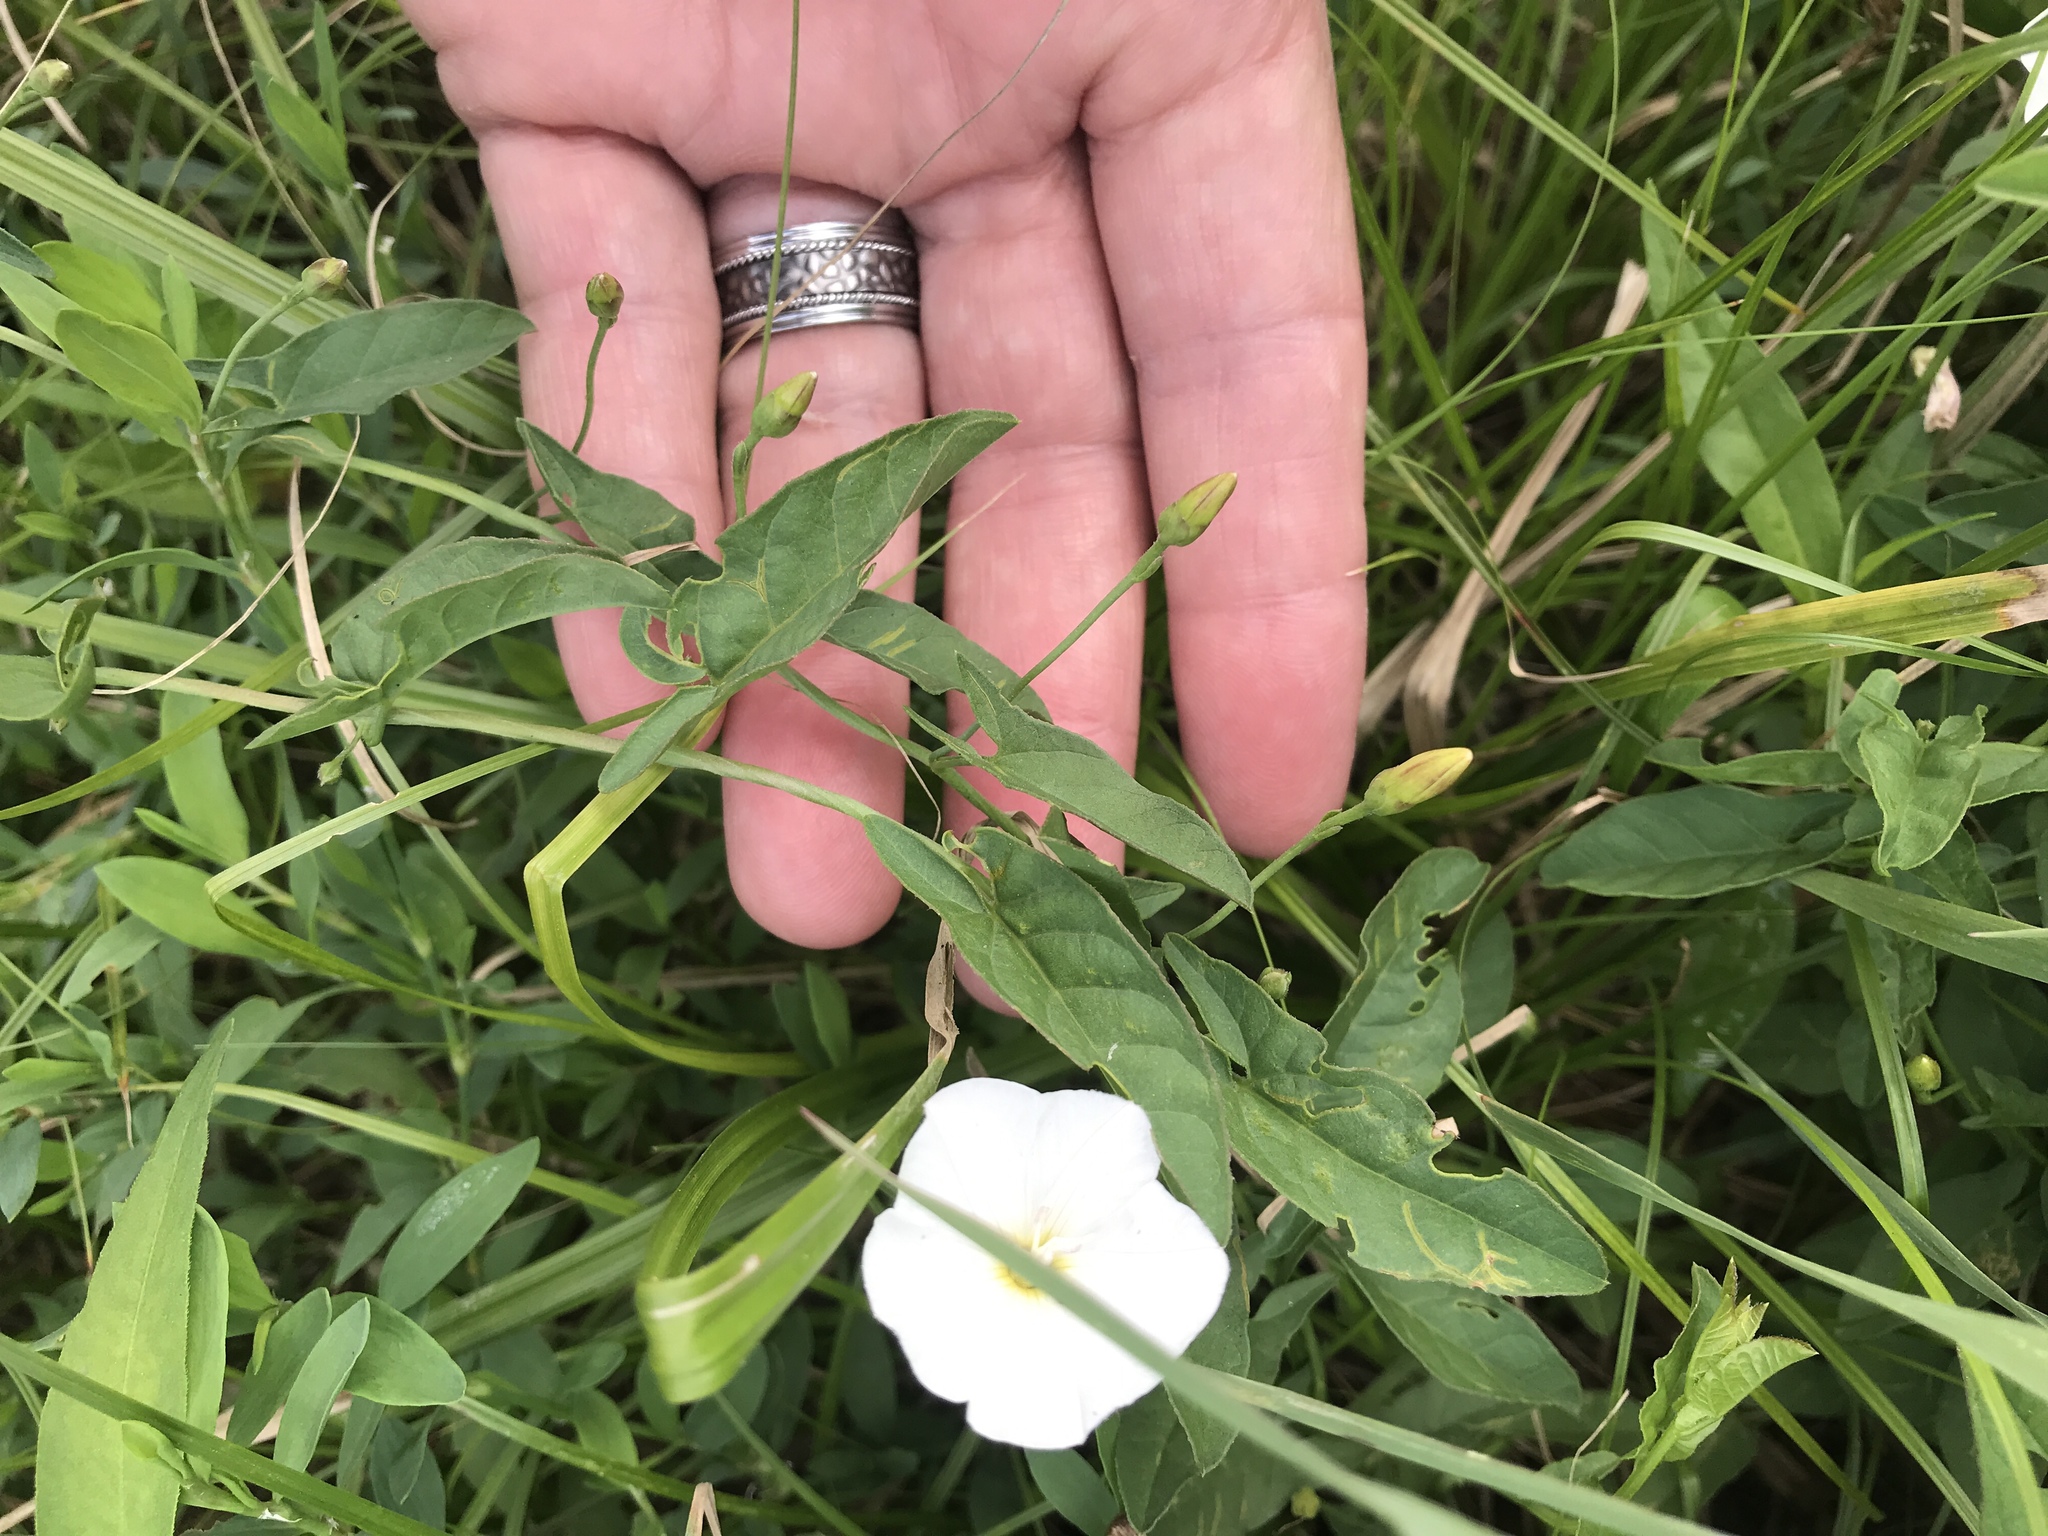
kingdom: Plantae
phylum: Tracheophyta
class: Magnoliopsida
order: Solanales
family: Convolvulaceae
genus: Convolvulus
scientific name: Convolvulus arvensis
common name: Field bindweed
